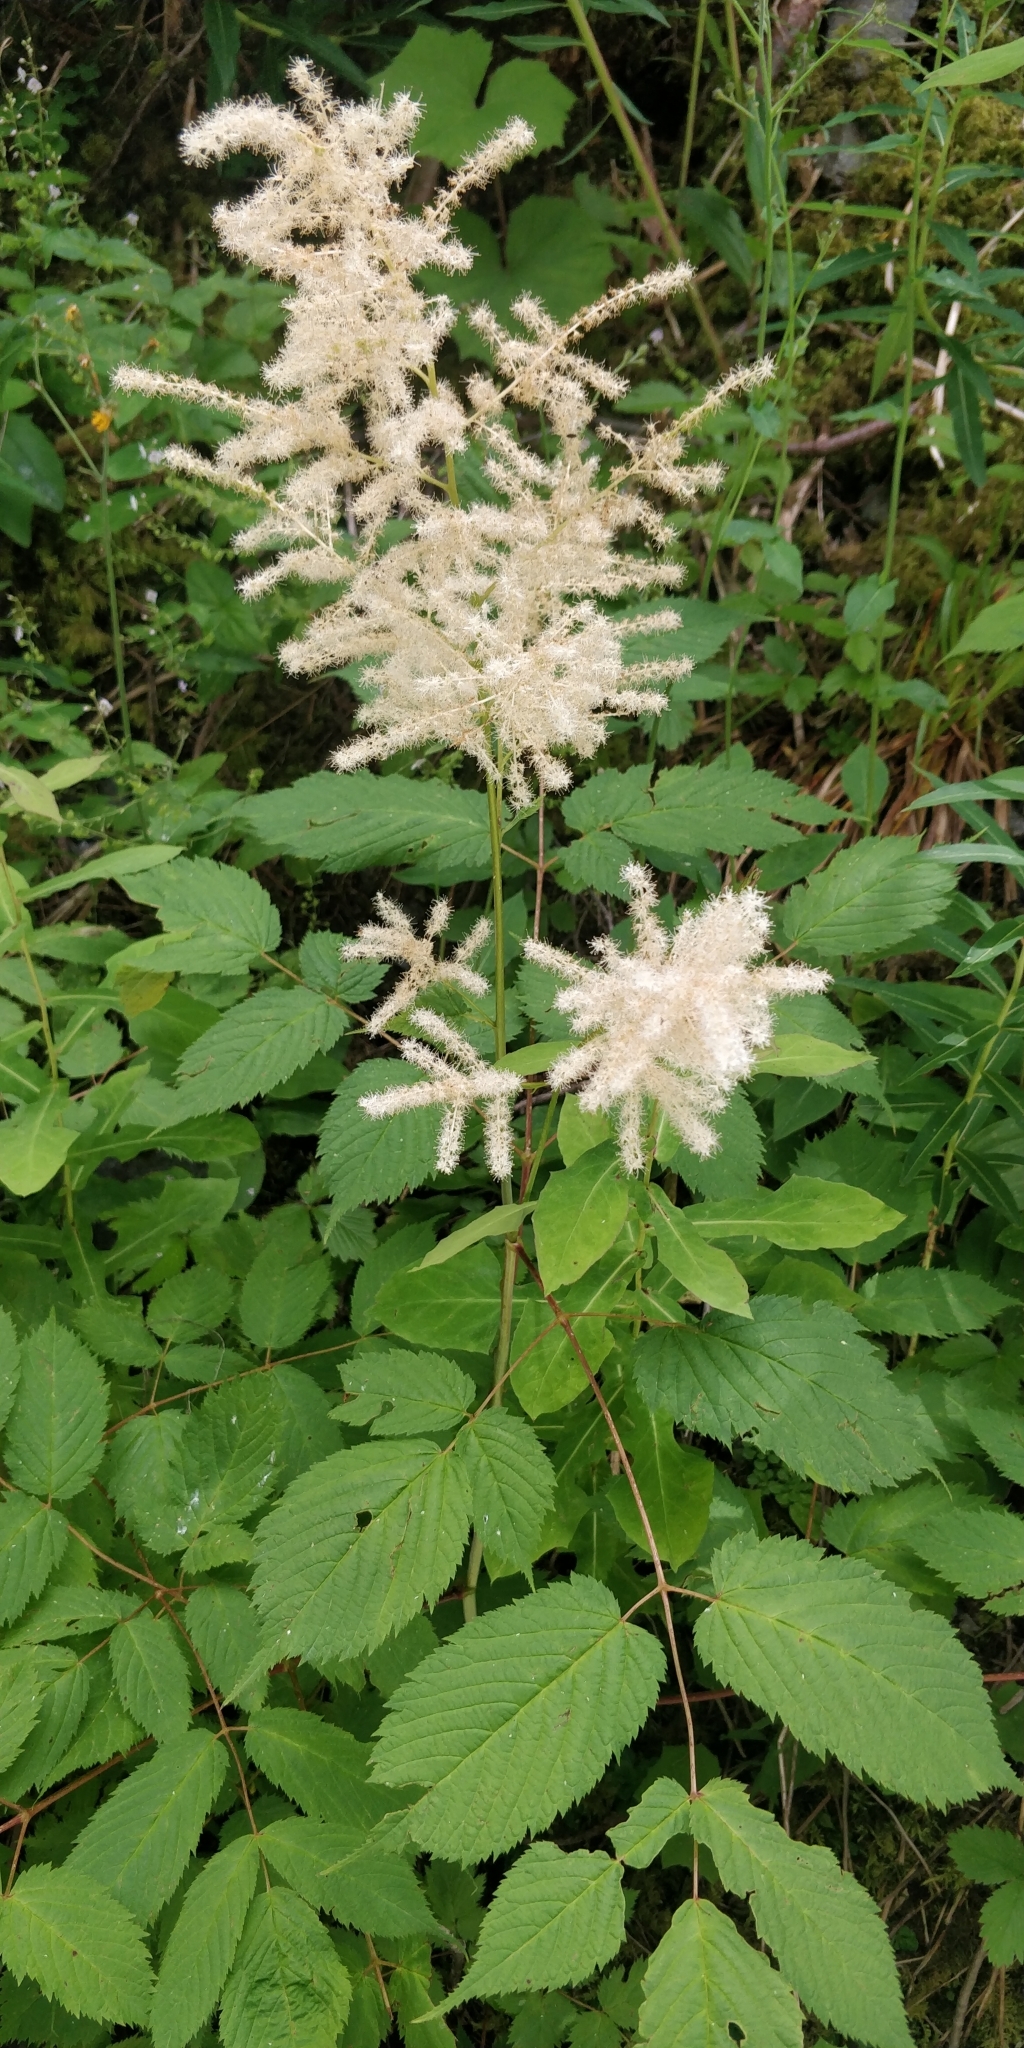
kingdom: Plantae
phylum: Tracheophyta
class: Magnoliopsida
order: Rosales
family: Rosaceae
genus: Aruncus
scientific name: Aruncus dioicus
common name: Buck's-beard
